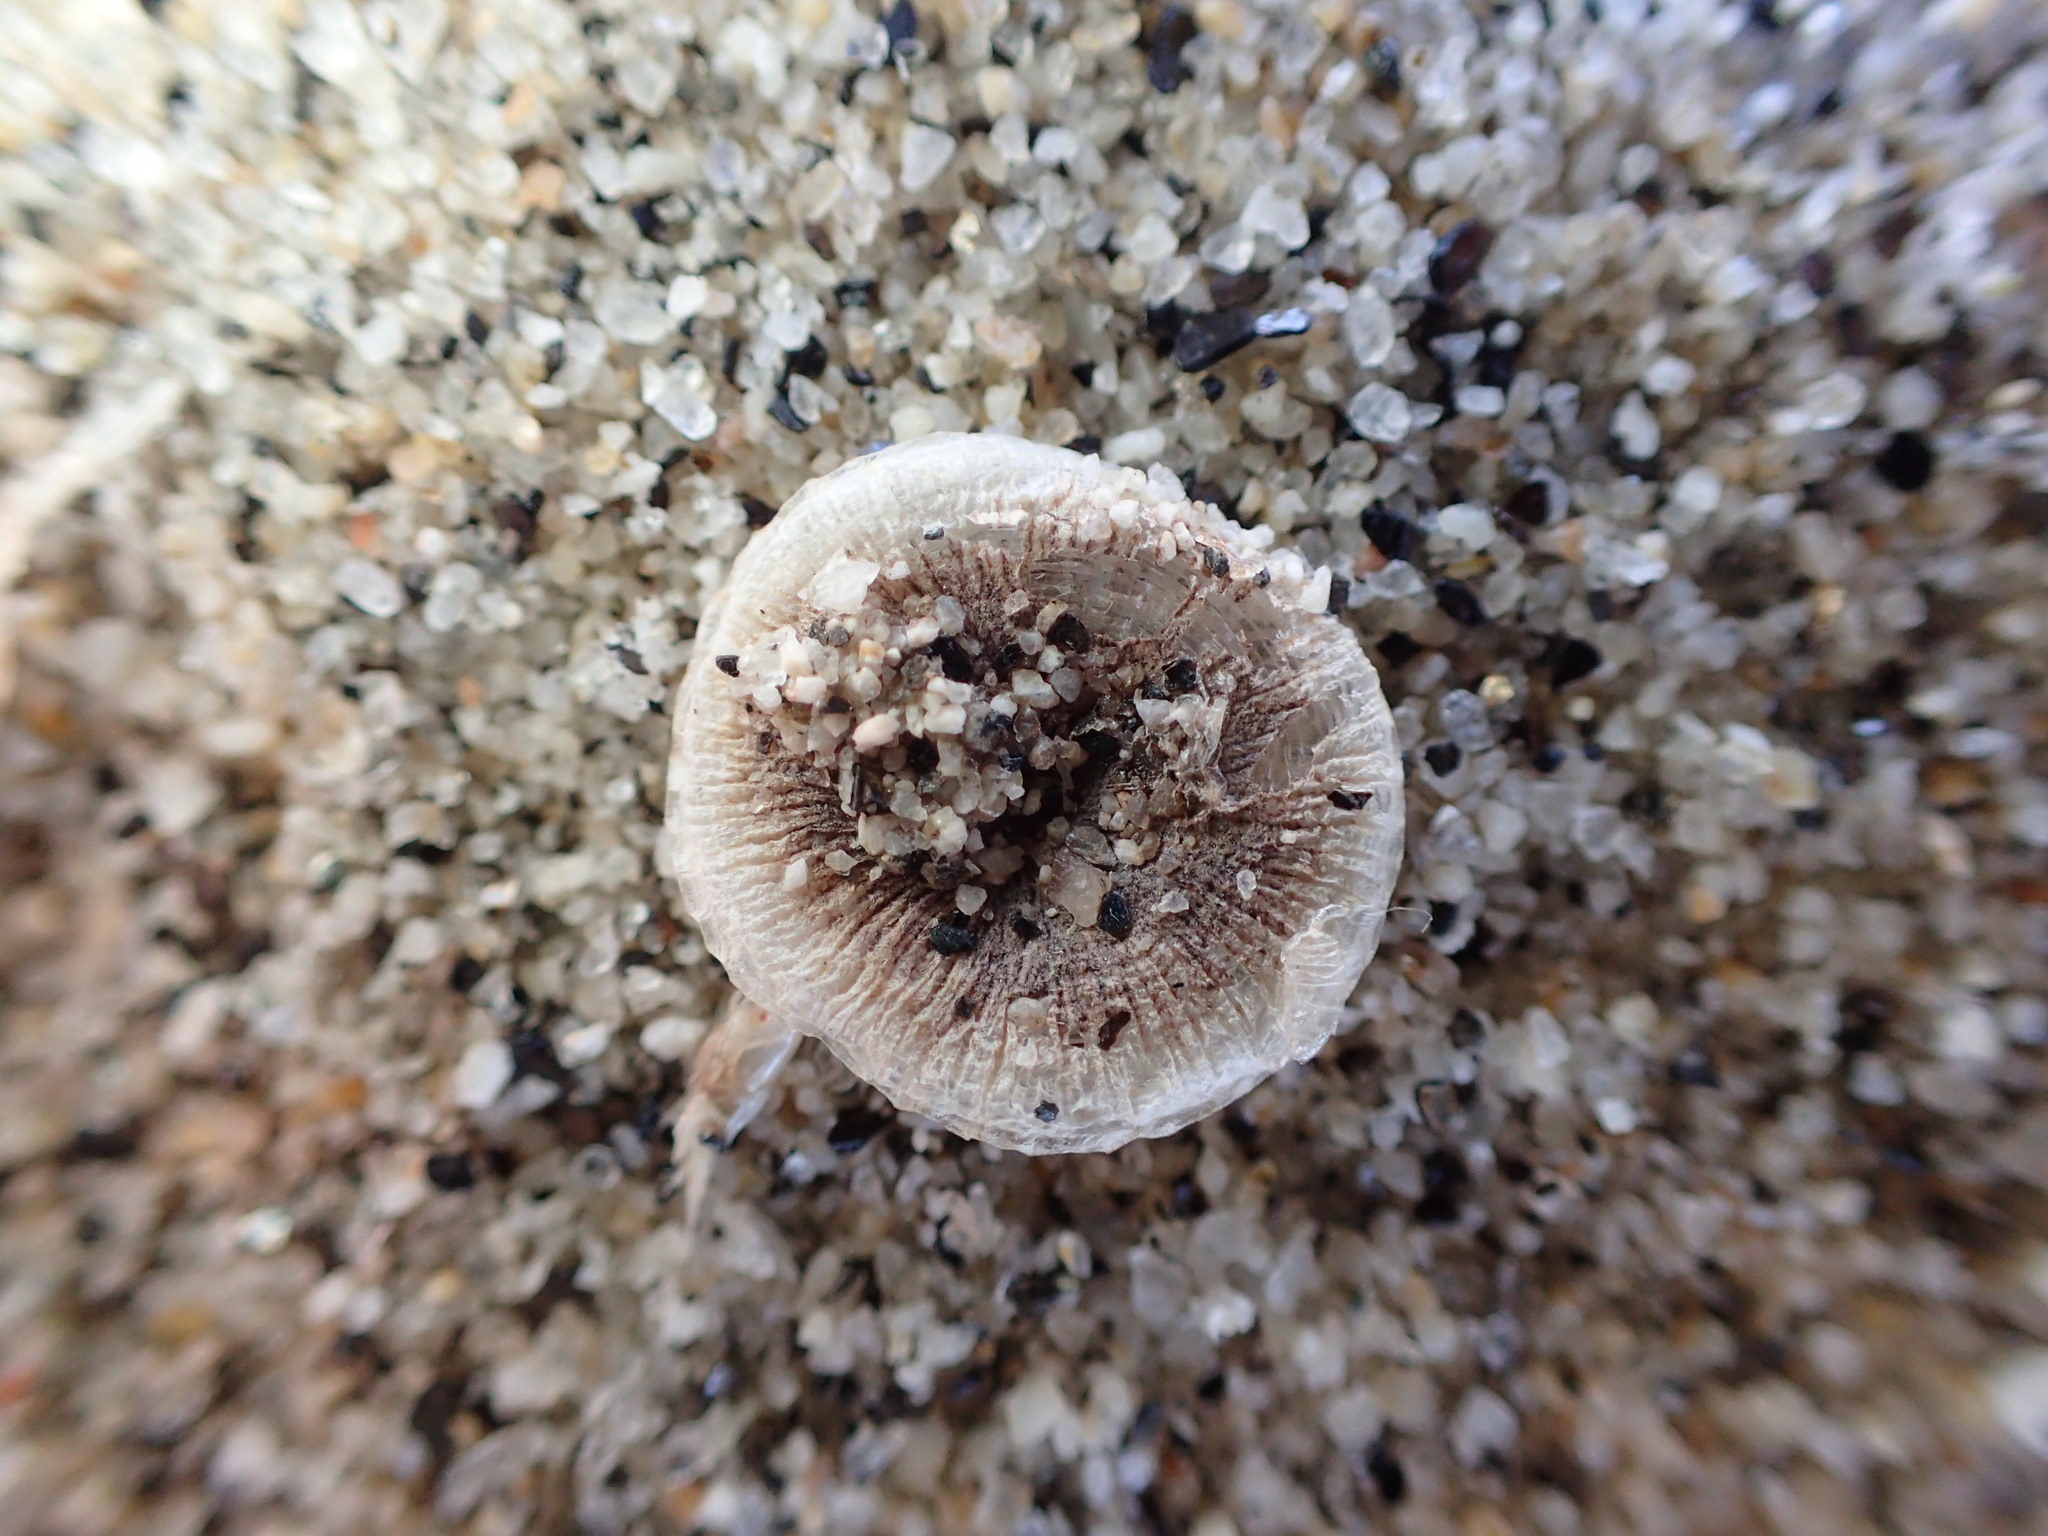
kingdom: Animalia
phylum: Cnidaria
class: Hydrozoa
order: Anthoathecata
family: Porpitidae
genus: Porpita
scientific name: Porpita porpita
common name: Blue button
